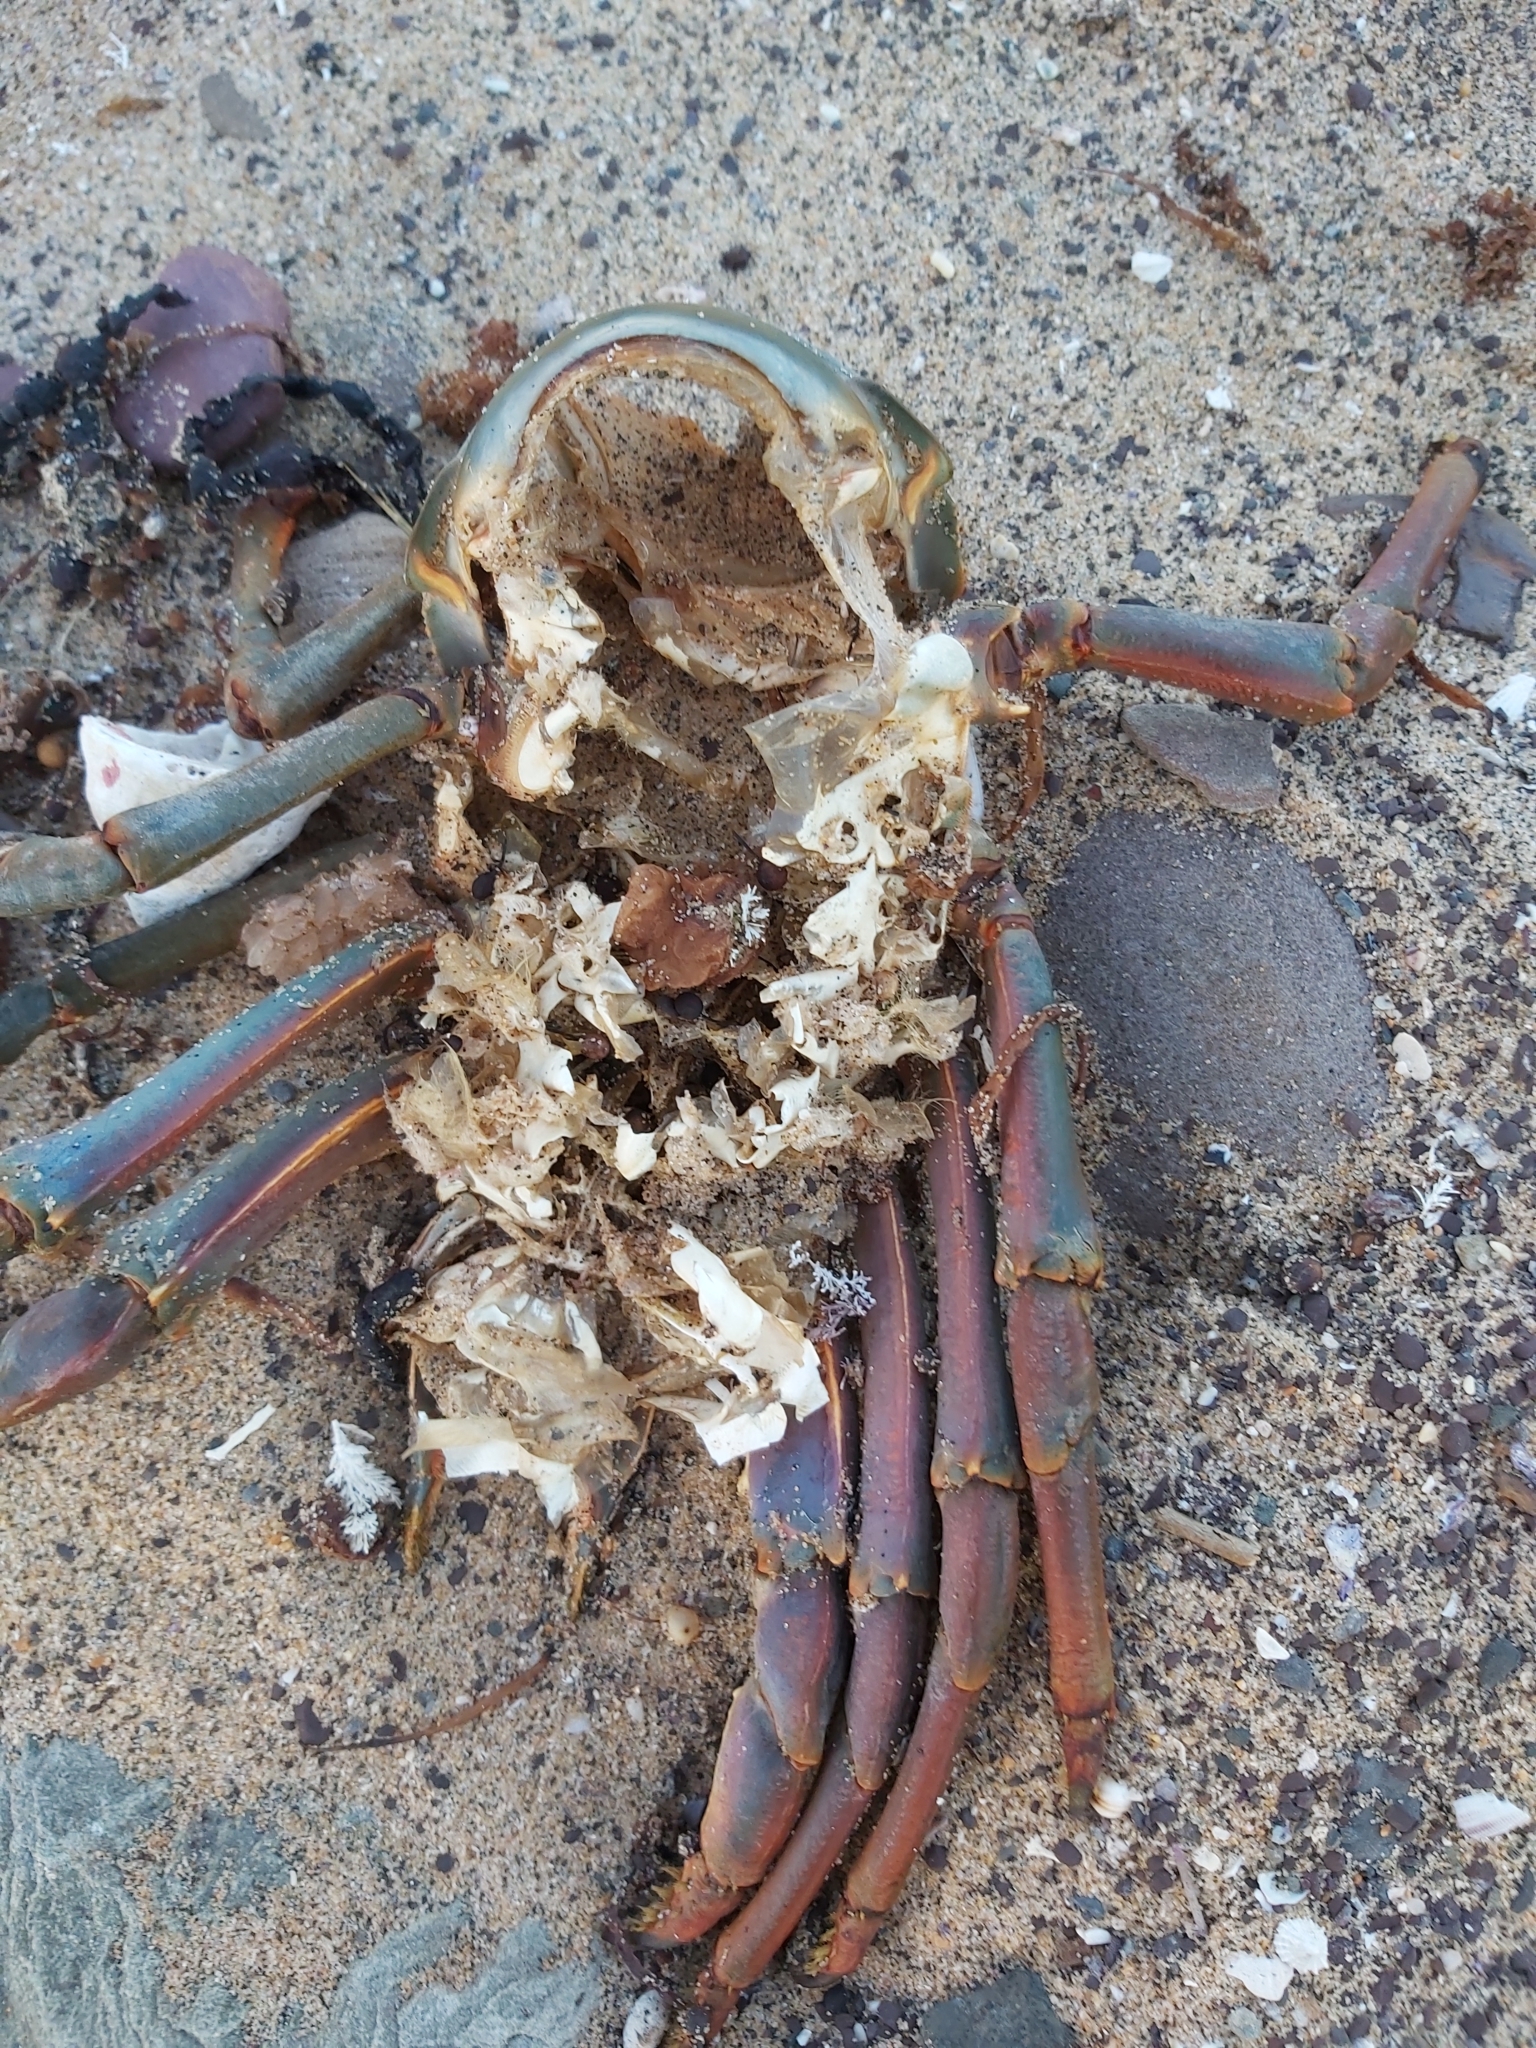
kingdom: Animalia
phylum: Arthropoda
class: Malacostraca
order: Decapoda
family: Palinuridae
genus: Sagmariasus
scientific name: Sagmariasus verreauxi
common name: Green rock lobster
